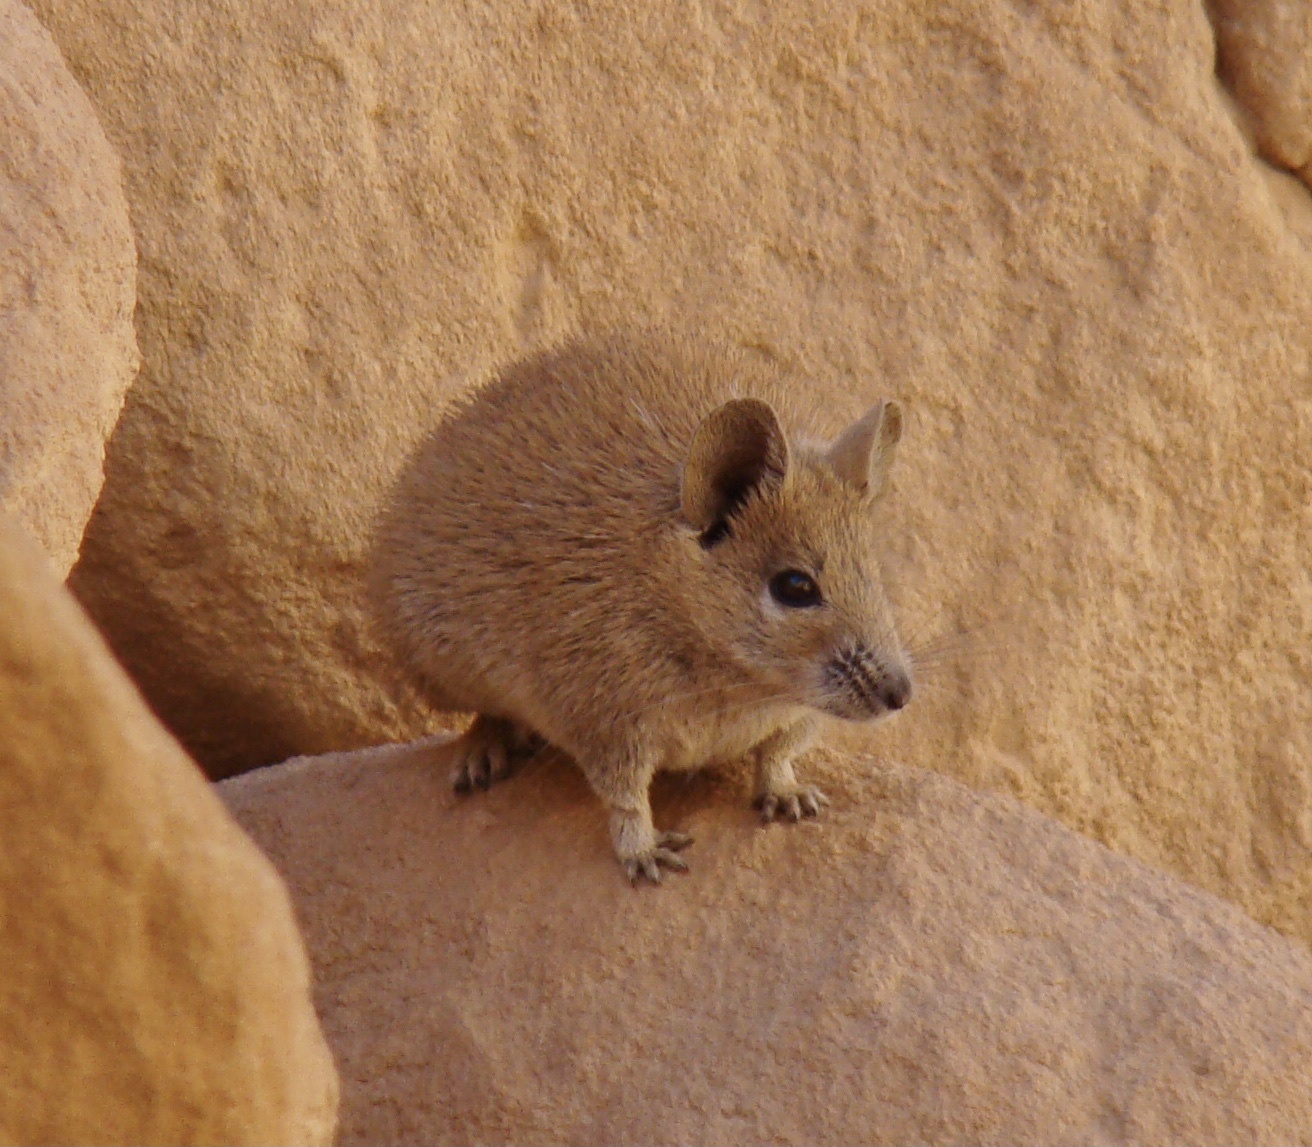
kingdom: Animalia
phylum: Chordata
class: Mammalia
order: Rodentia
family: Muridae
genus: Acomys
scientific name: Acomys russatus
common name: Golden spiny mouse
